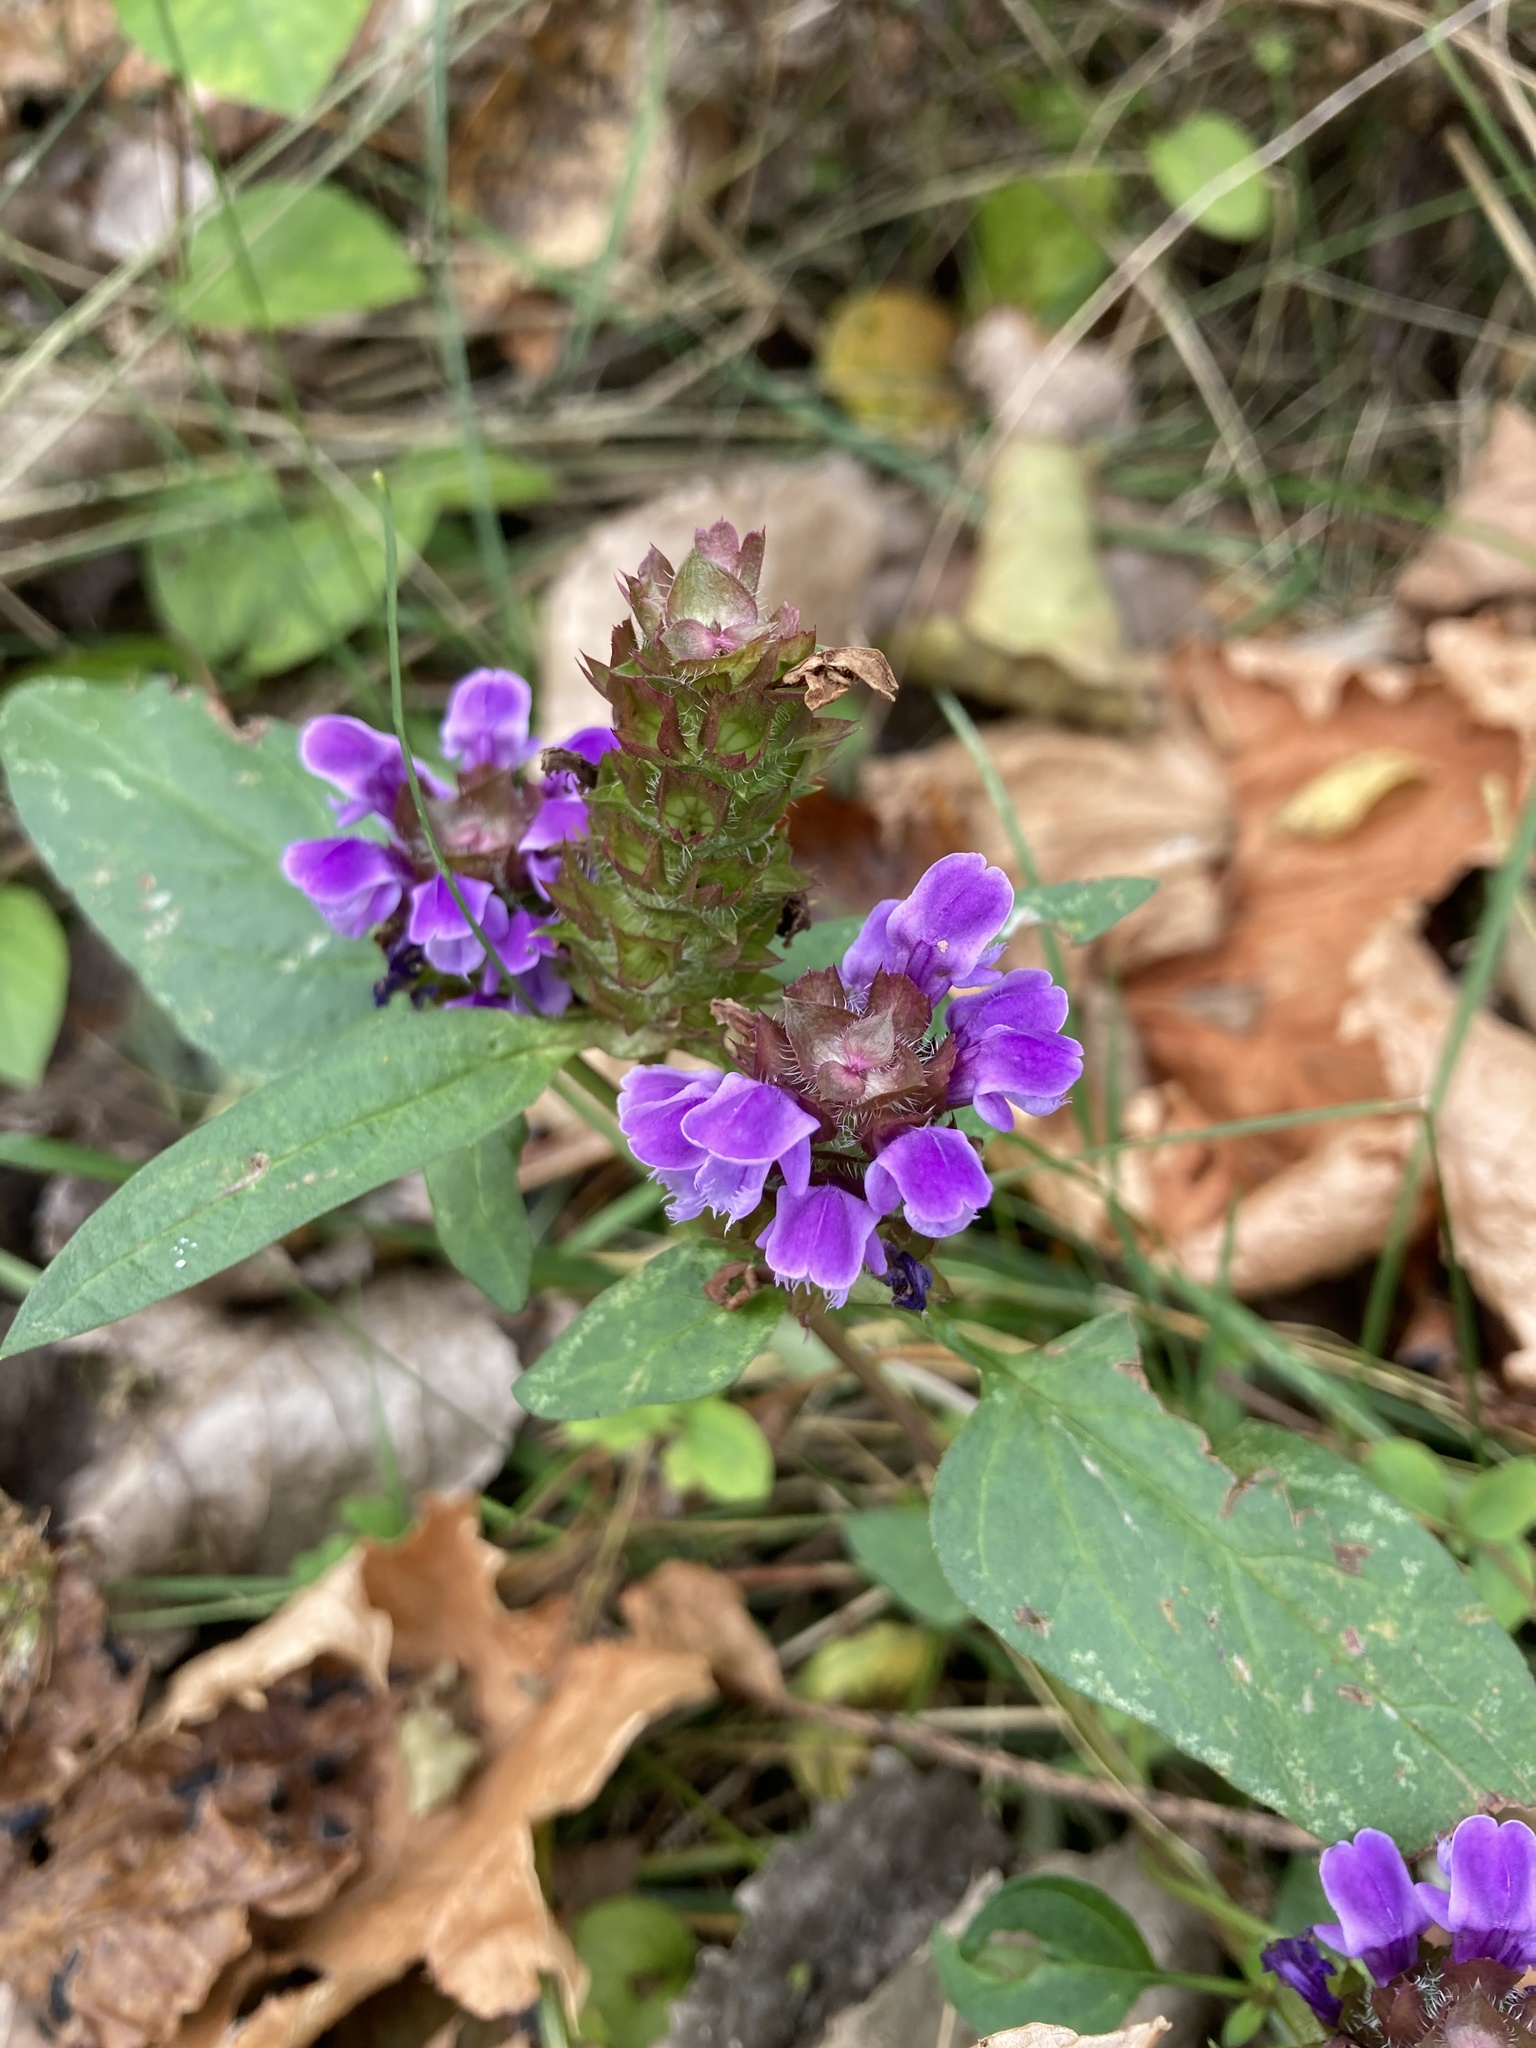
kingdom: Plantae
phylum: Tracheophyta
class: Magnoliopsida
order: Lamiales
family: Lamiaceae
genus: Prunella
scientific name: Prunella vulgaris
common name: Heal-all
